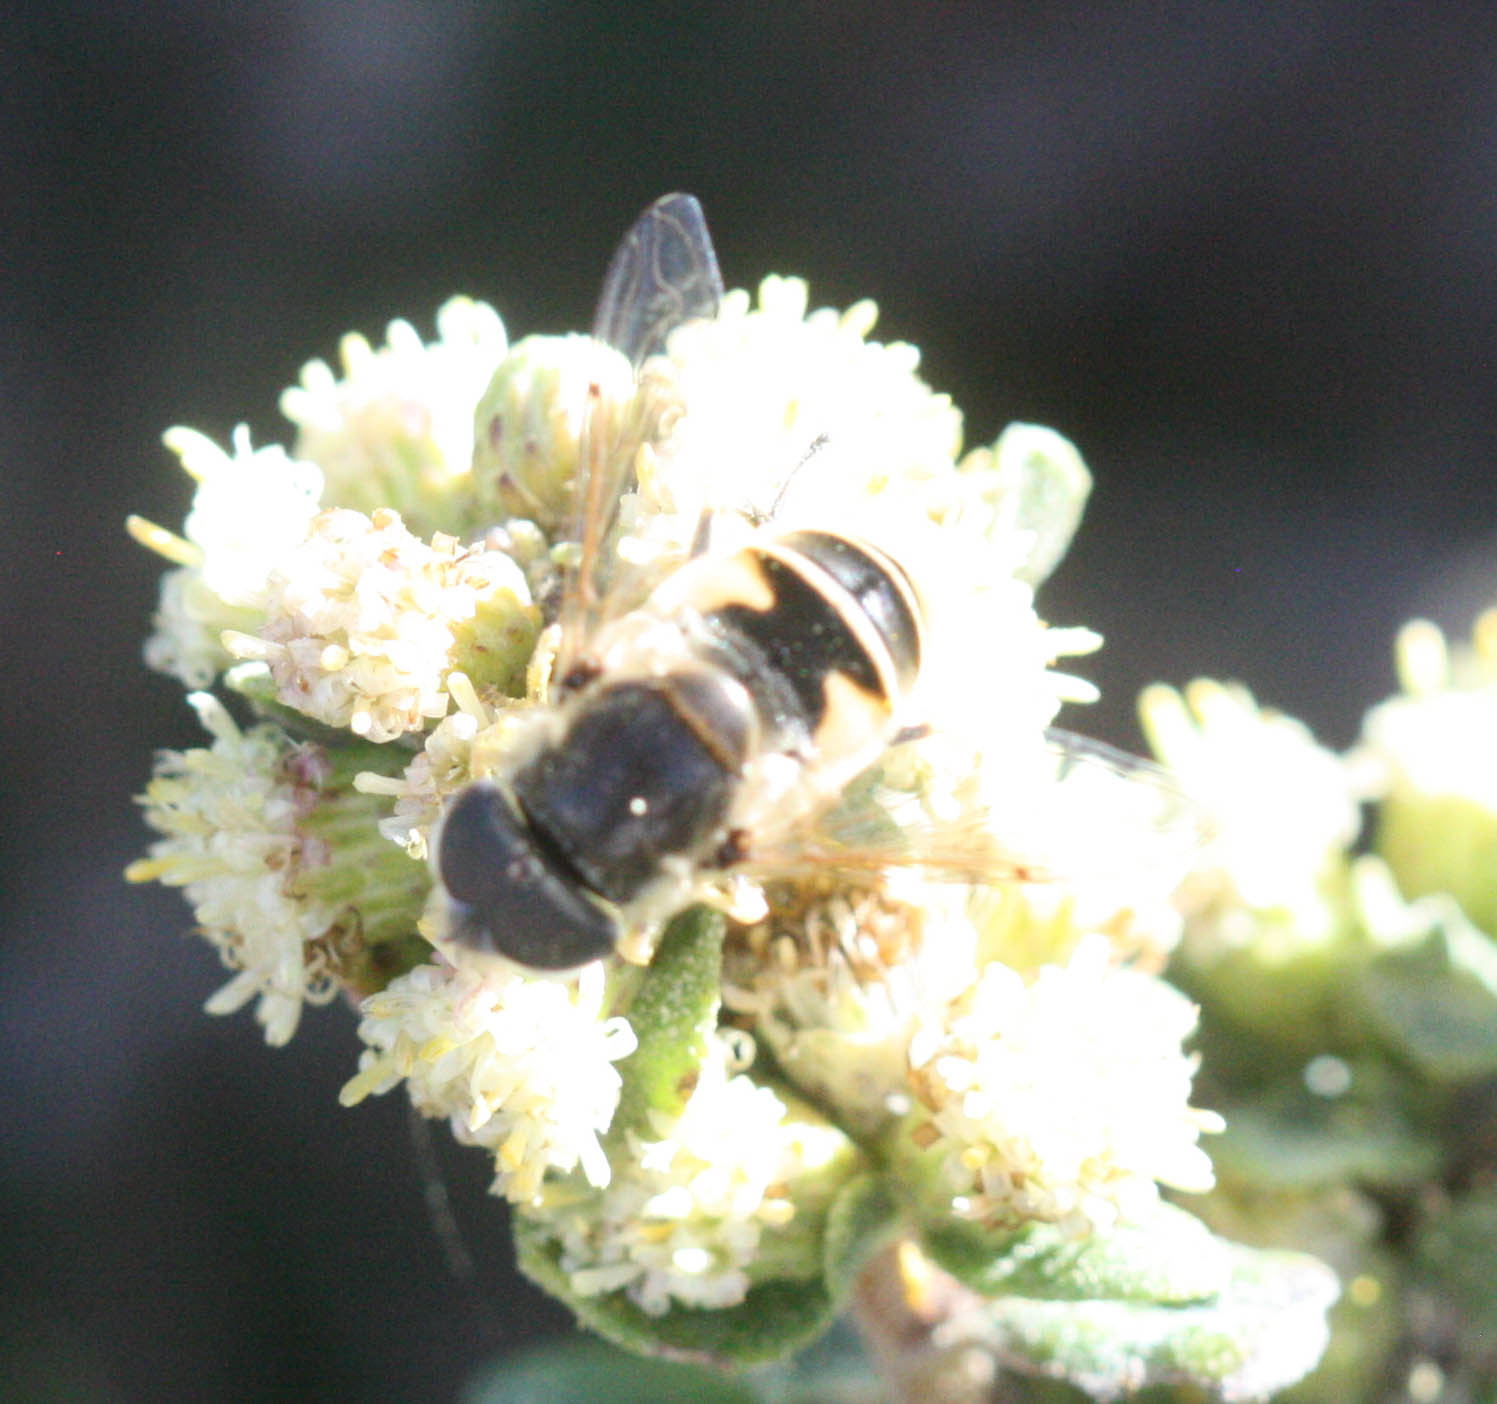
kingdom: Animalia
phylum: Arthropoda
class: Insecta
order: Diptera
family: Syrphidae
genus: Eoseristalis
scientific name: Eoseristalis
